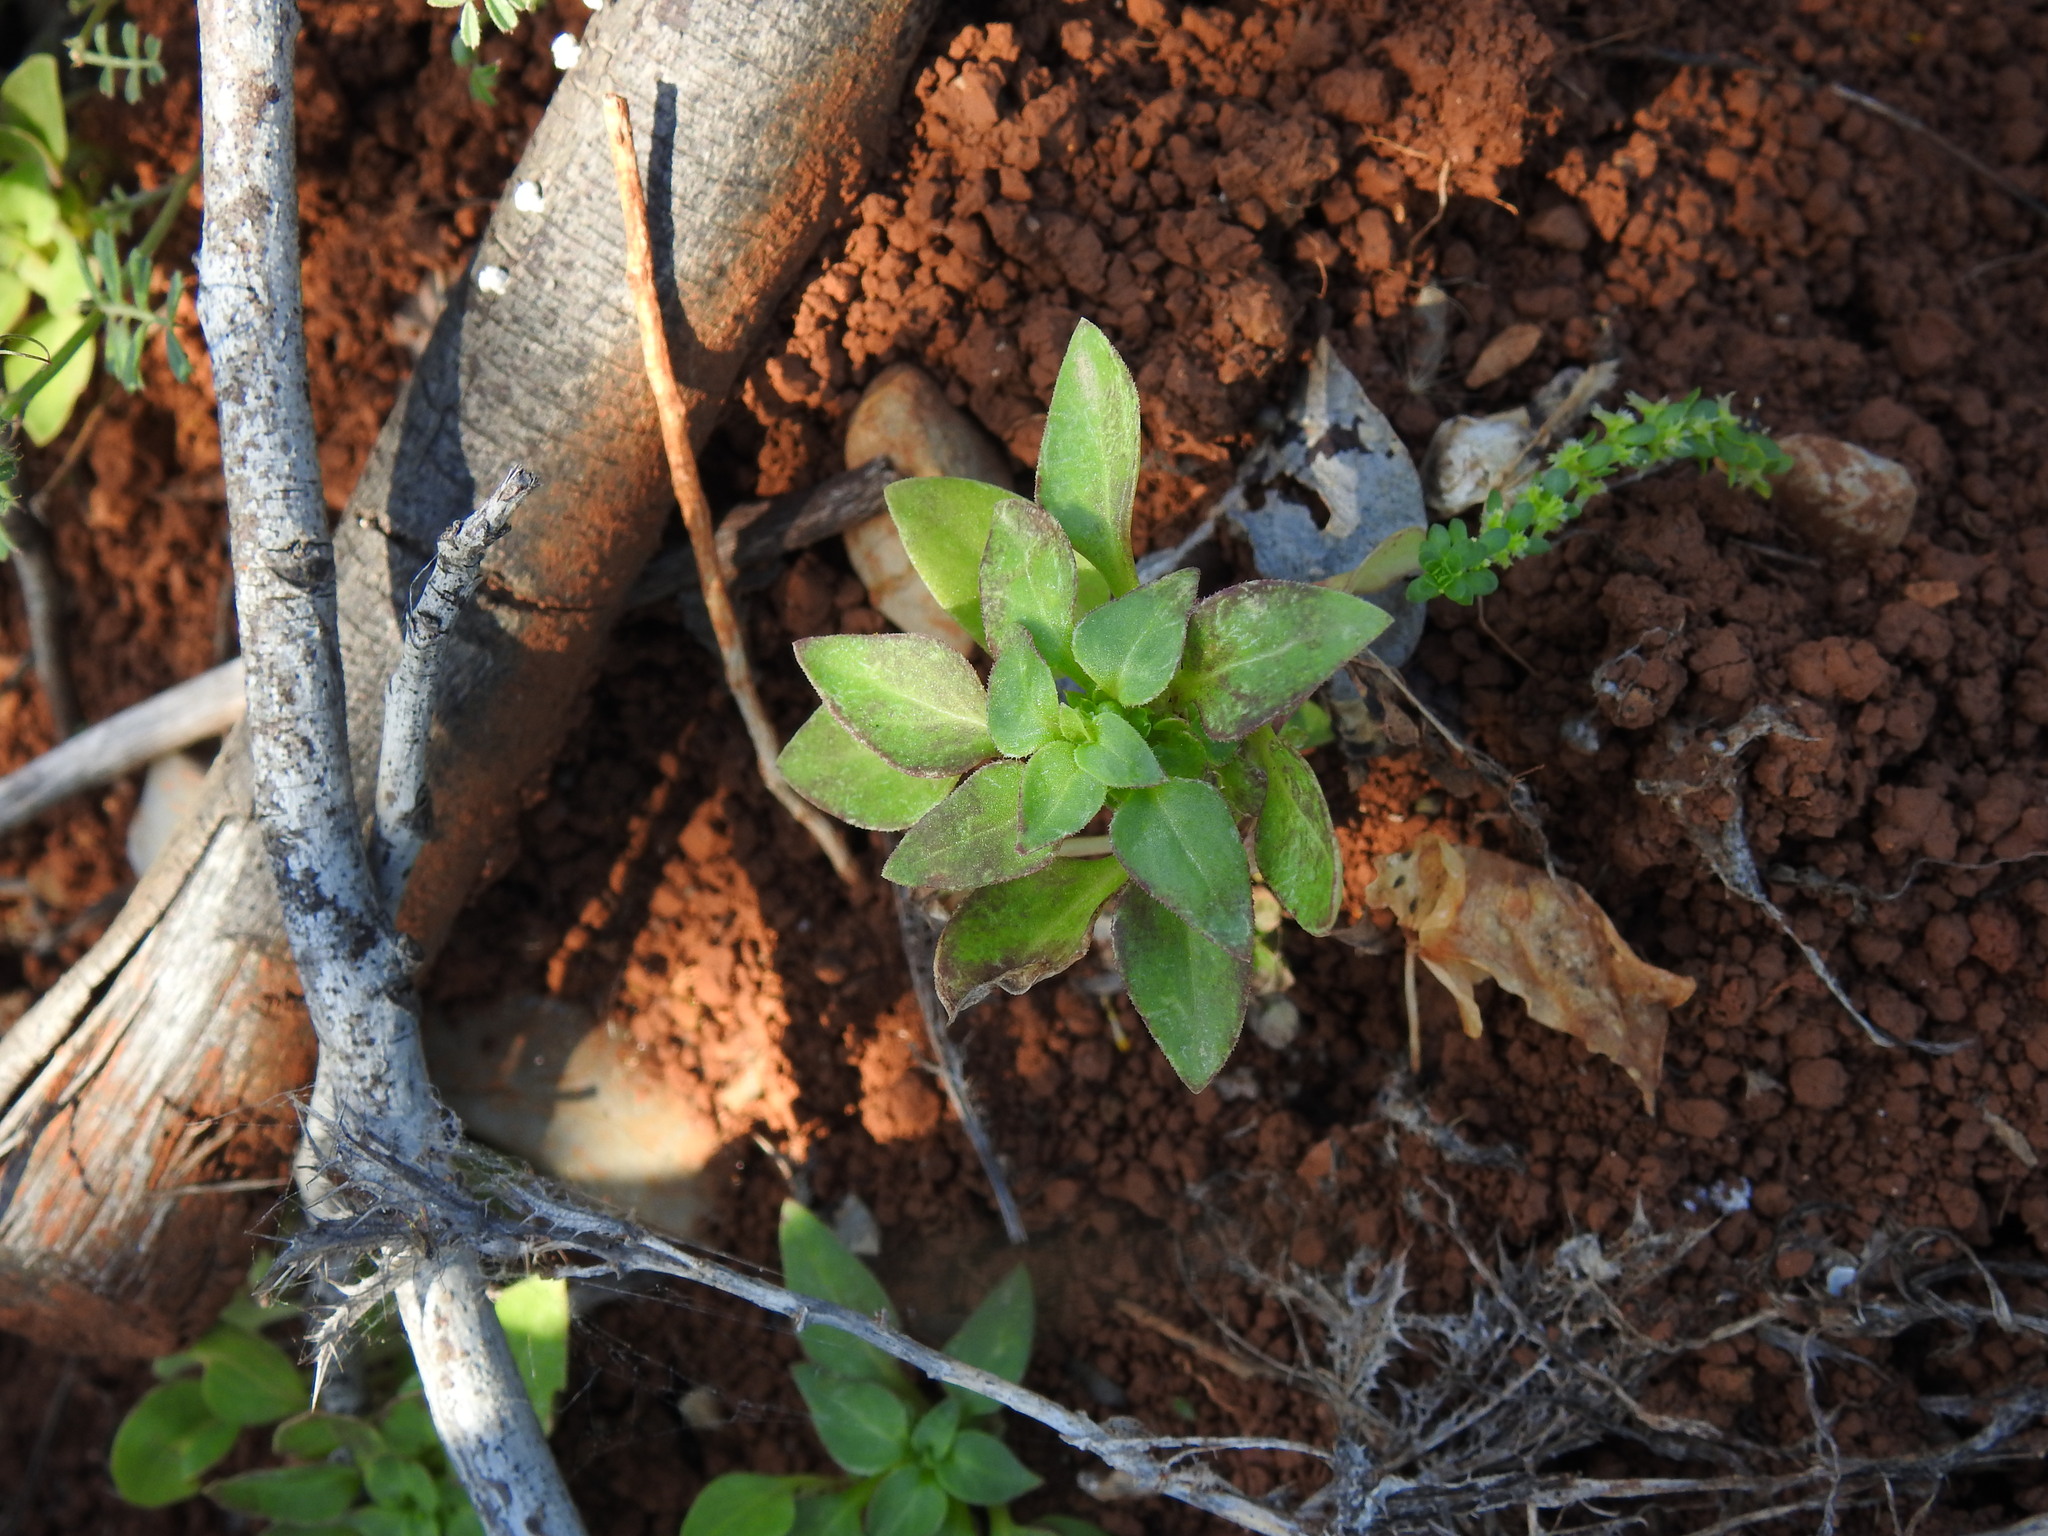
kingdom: Plantae
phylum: Tracheophyta
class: Magnoliopsida
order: Gentianales
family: Rubiaceae
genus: Theligonum
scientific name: Theligonum cynocrambe
